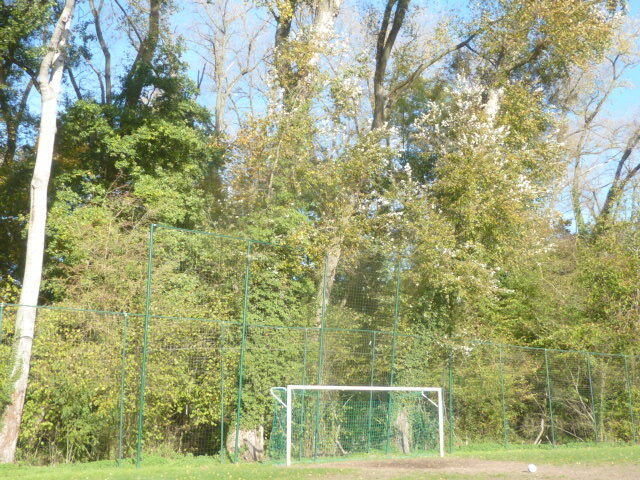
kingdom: Animalia
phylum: Arthropoda
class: Insecta
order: Hymenoptera
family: Vespidae
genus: Vespa
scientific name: Vespa velutina
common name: Asian hornet
